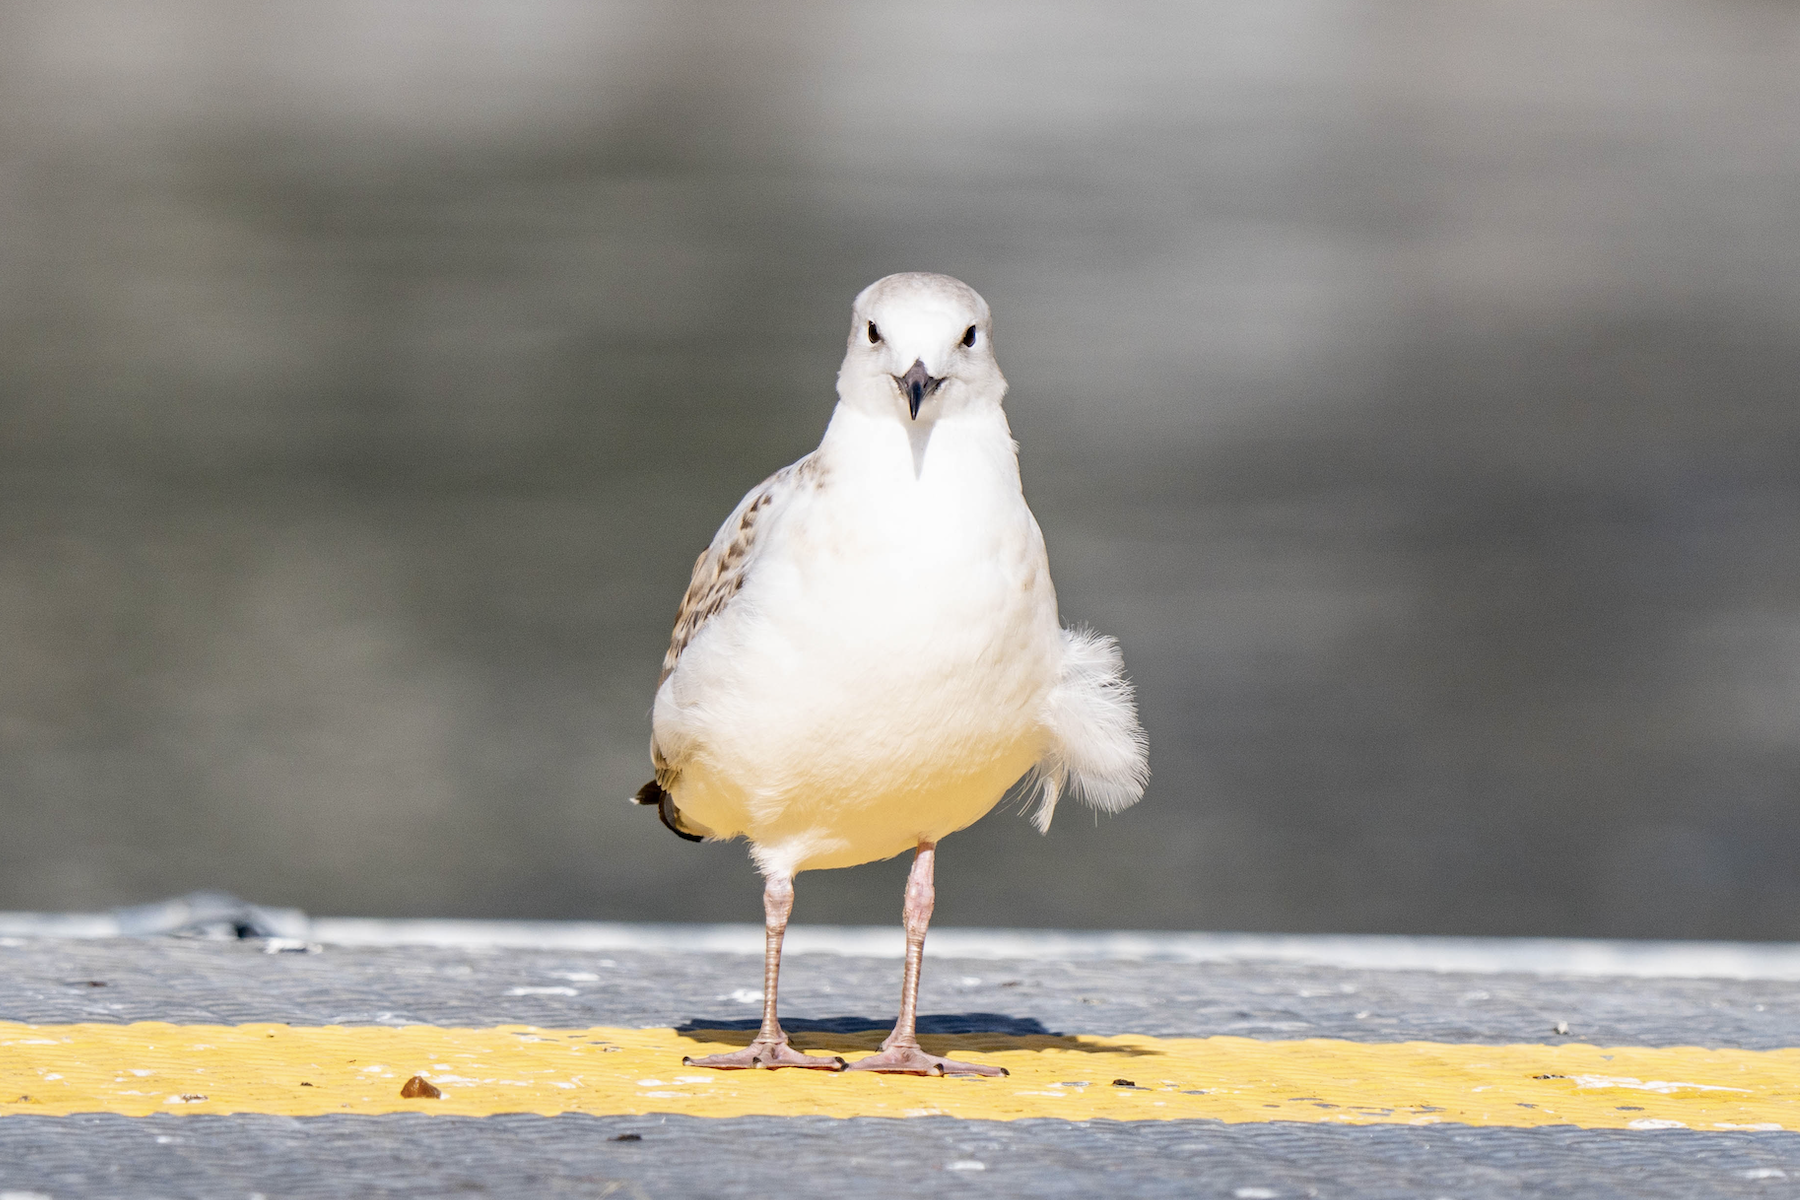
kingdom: Animalia
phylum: Chordata
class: Aves
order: Charadriiformes
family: Laridae
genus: Chroicocephalus
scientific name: Chroicocephalus novaehollandiae
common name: Silver gull
